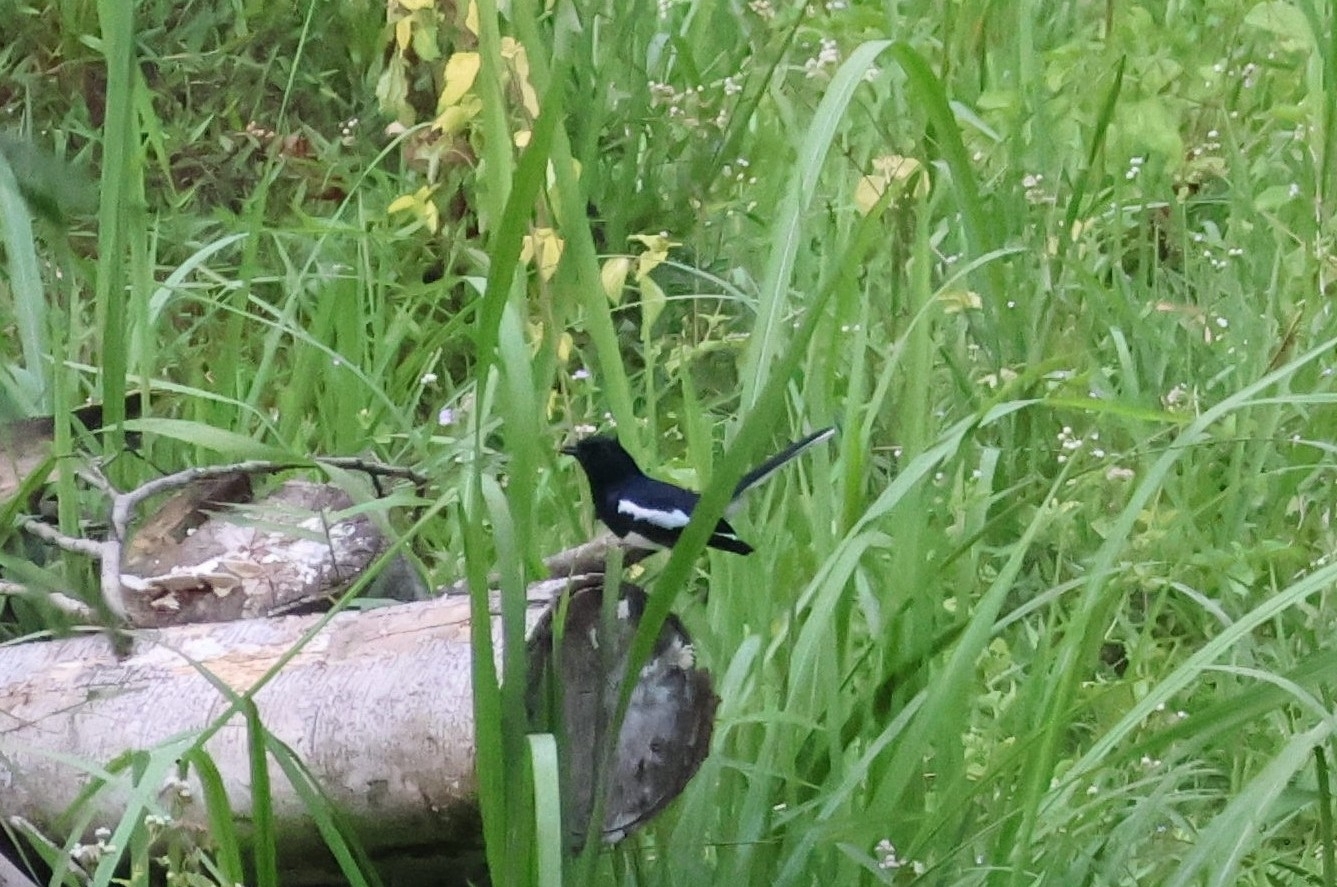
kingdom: Animalia
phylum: Chordata
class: Aves
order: Passeriformes
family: Muscicapidae
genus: Copsychus
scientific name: Copsychus saularis
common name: Oriental magpie-robin
